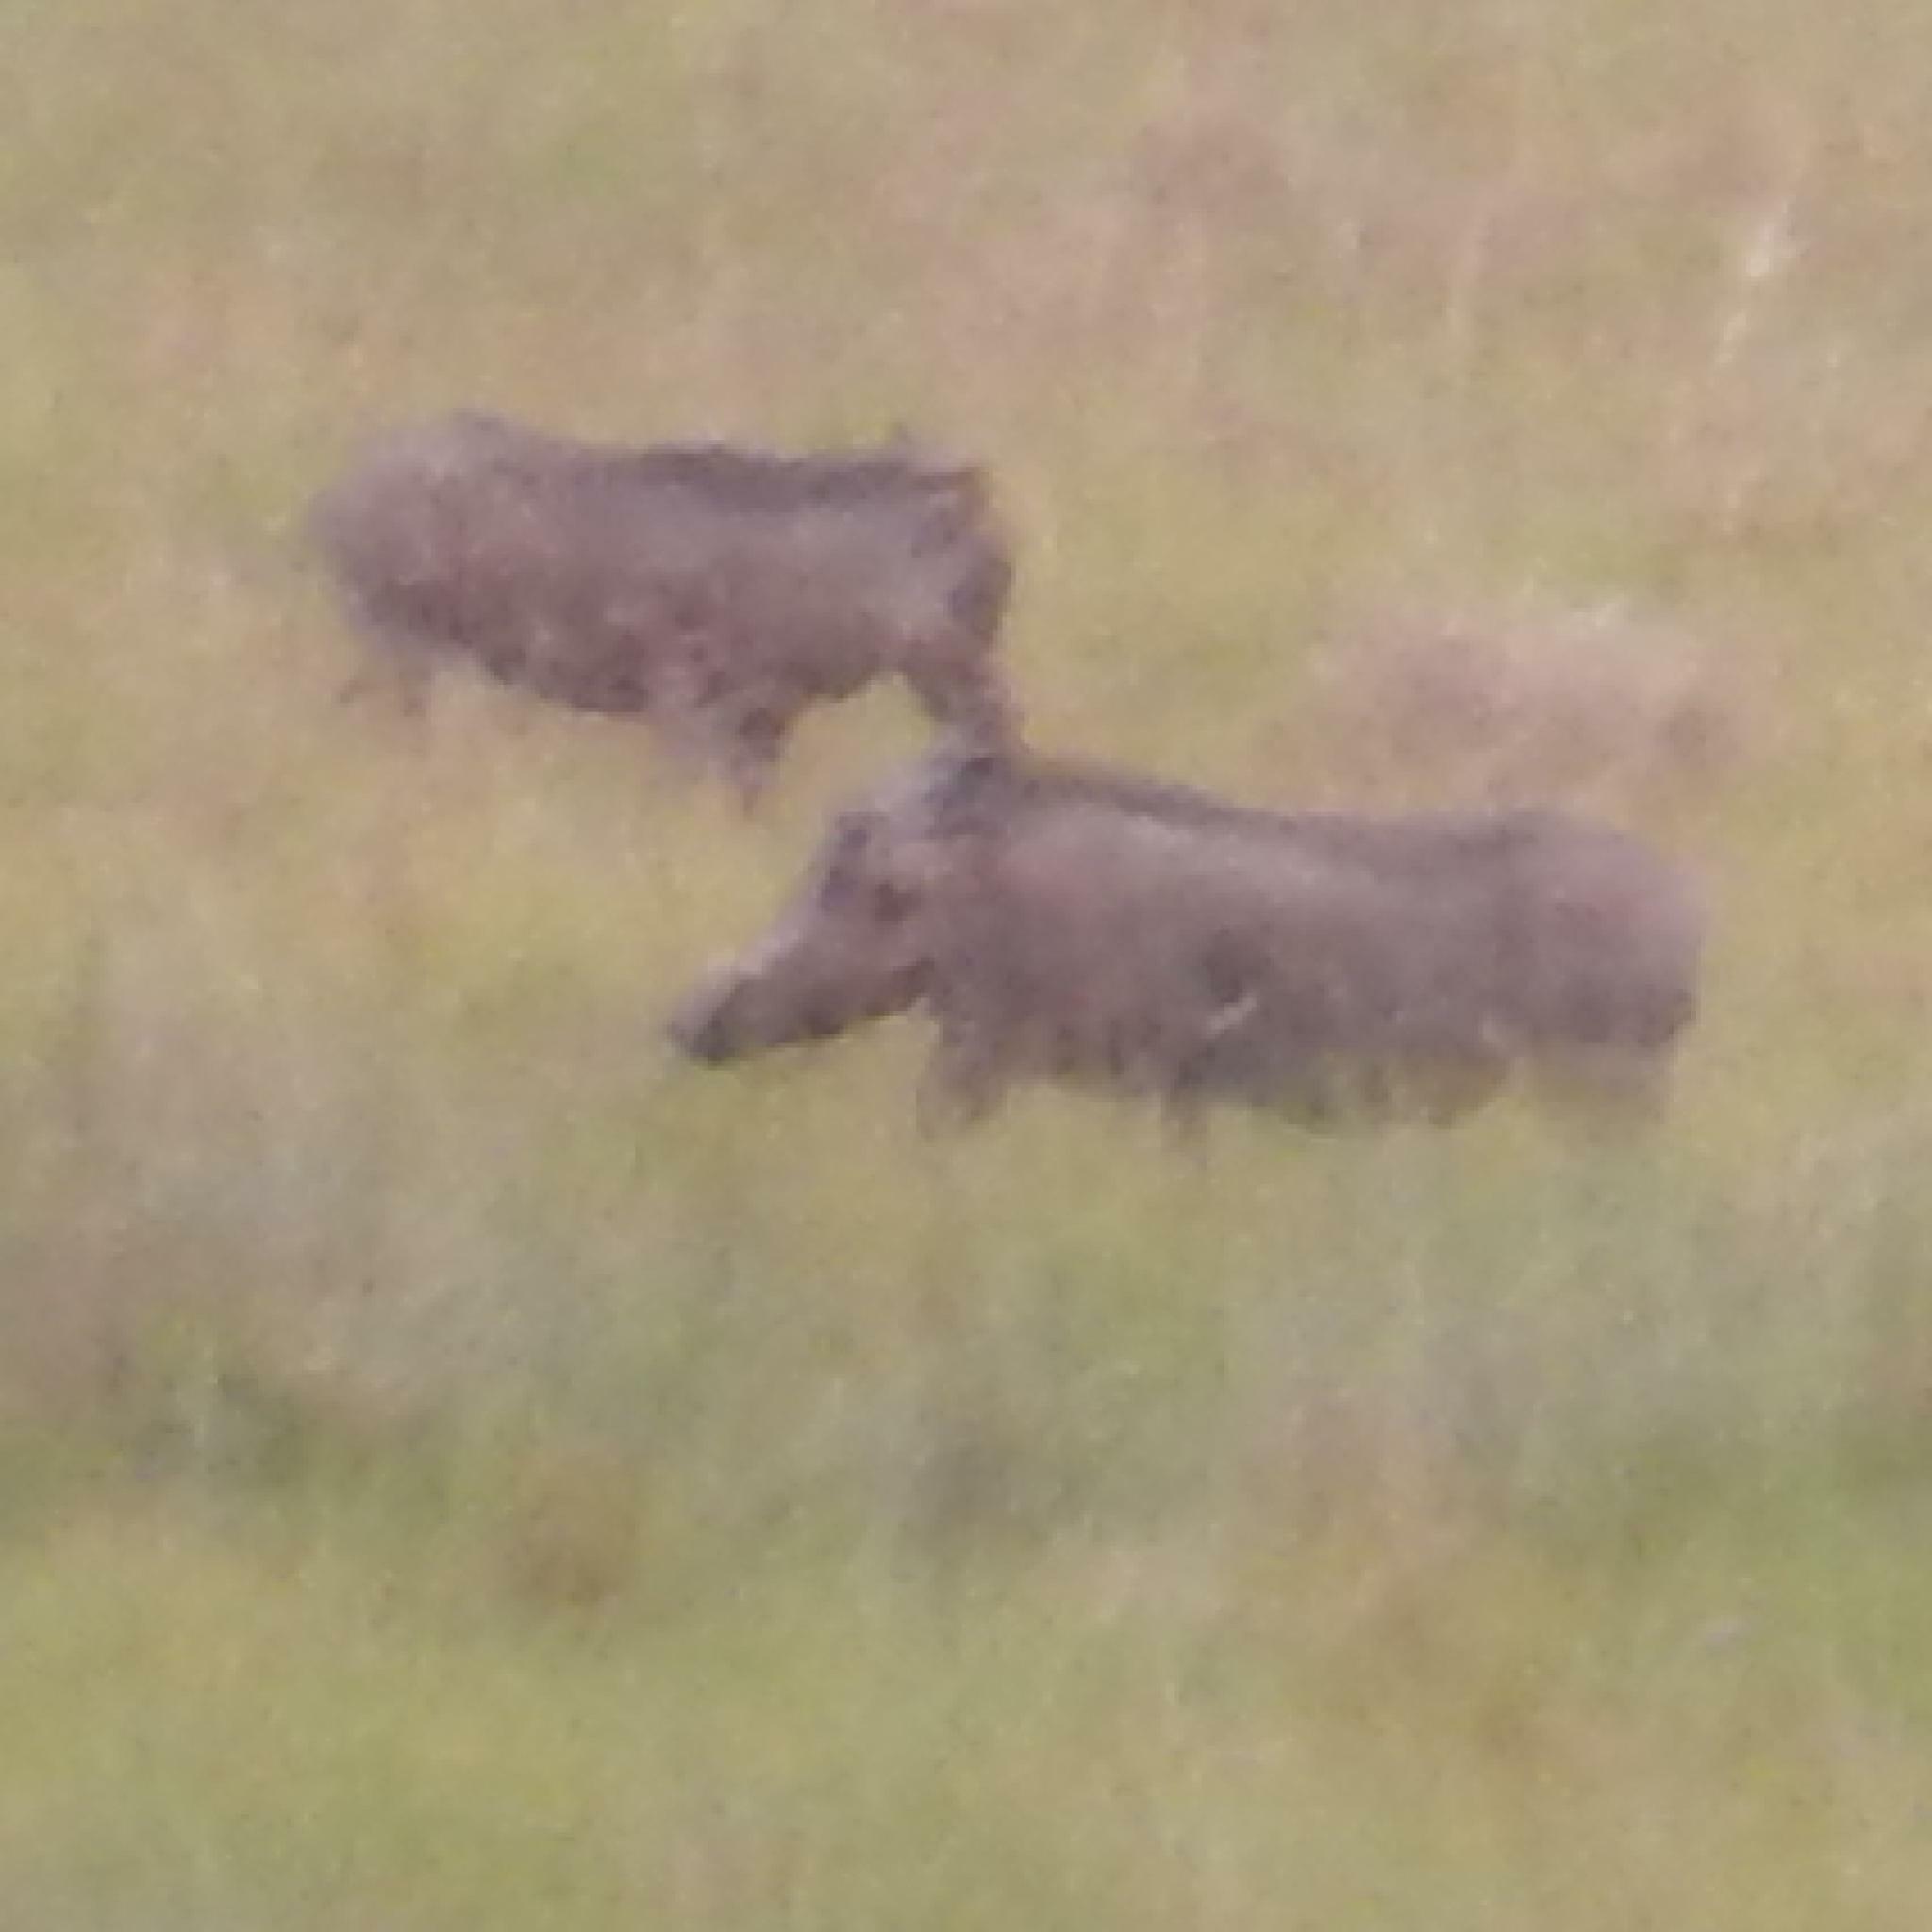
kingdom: Animalia
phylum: Chordata
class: Mammalia
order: Artiodactyla
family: Suidae
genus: Phacochoerus
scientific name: Phacochoerus africanus
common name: Common warthog
